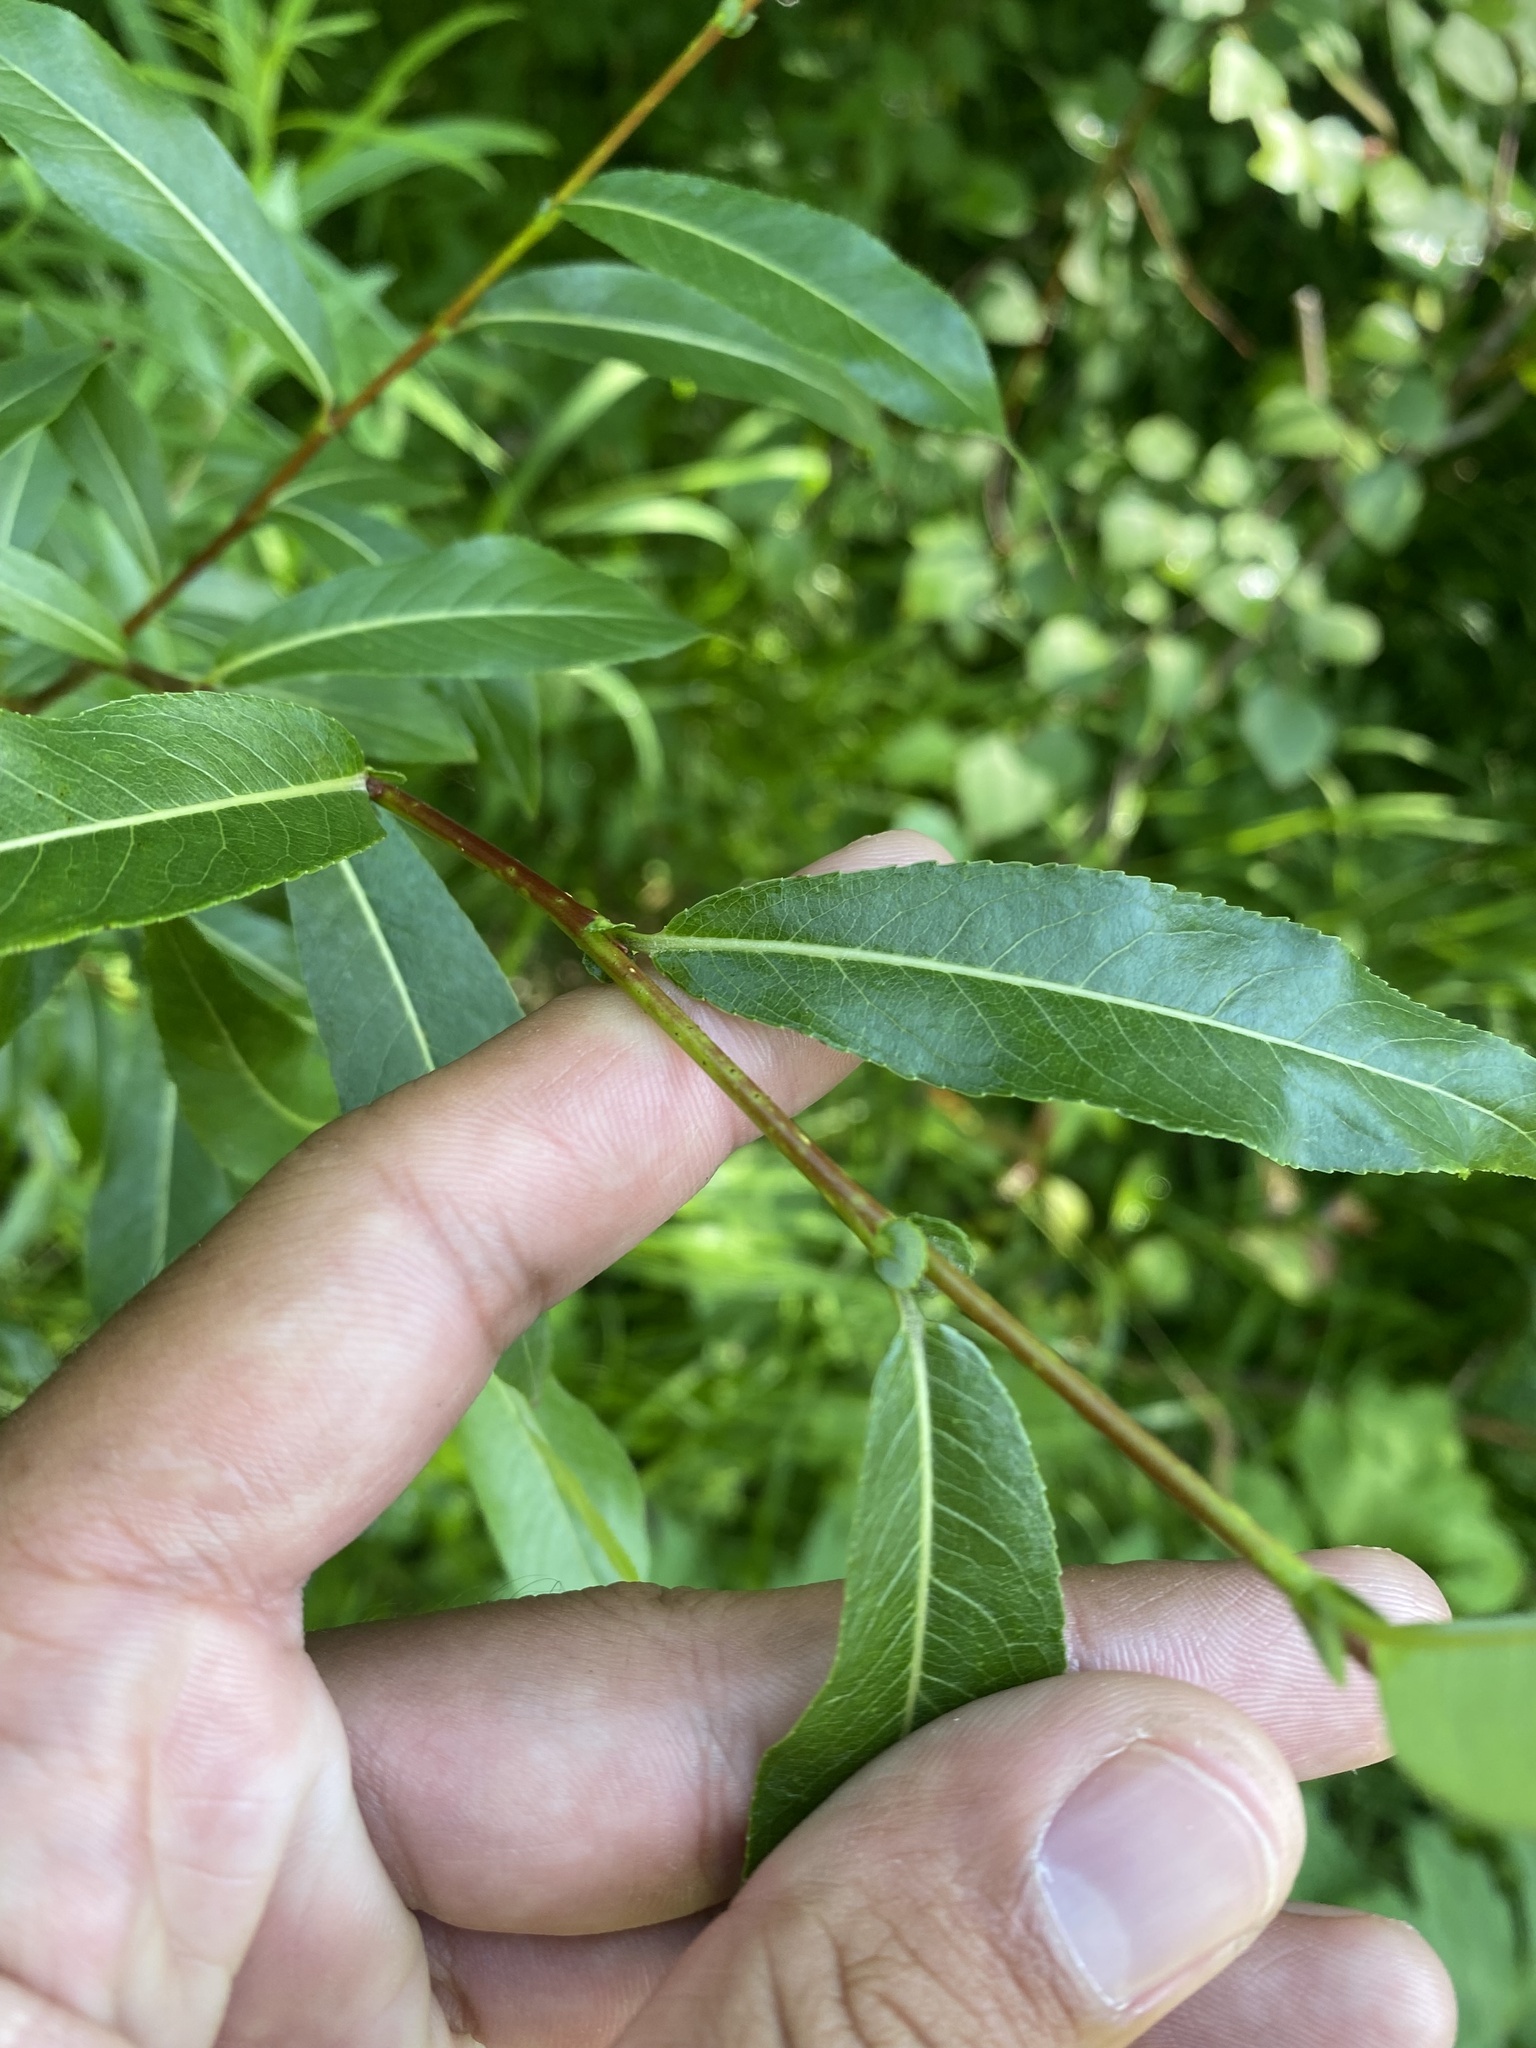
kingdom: Plantae
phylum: Tracheophyta
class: Magnoliopsida
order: Malpighiales
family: Salicaceae
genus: Salix
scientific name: Salix rorida
